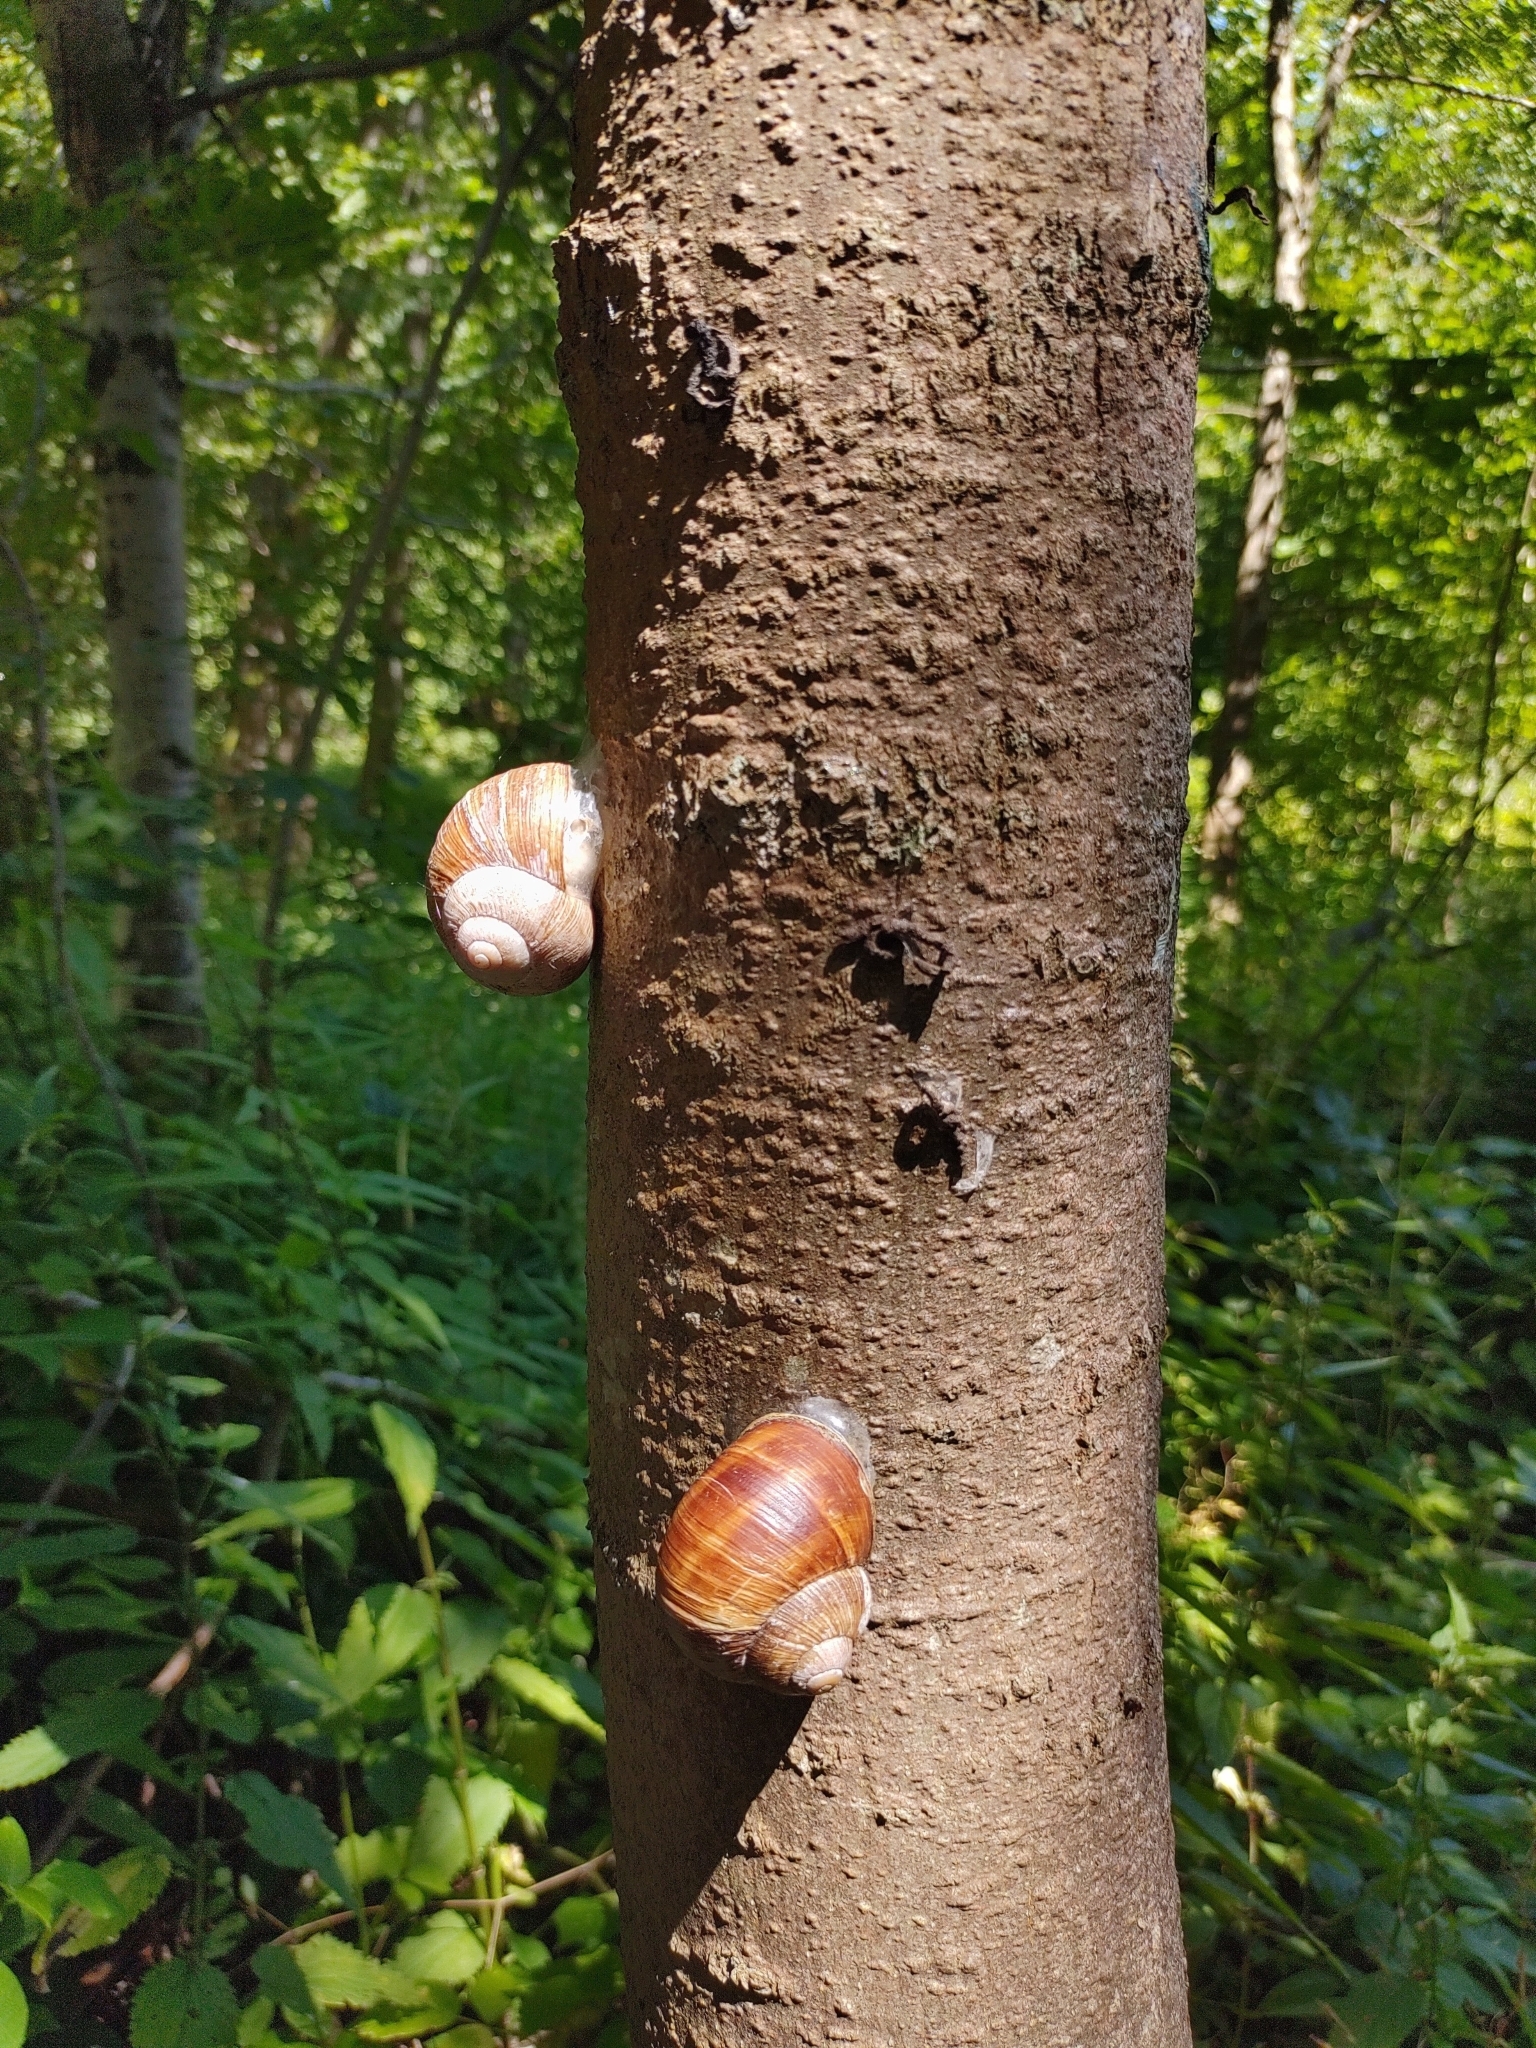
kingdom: Animalia
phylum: Mollusca
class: Gastropoda
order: Stylommatophora
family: Helicidae
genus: Helix
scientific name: Helix pomatia
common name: Roman snail
